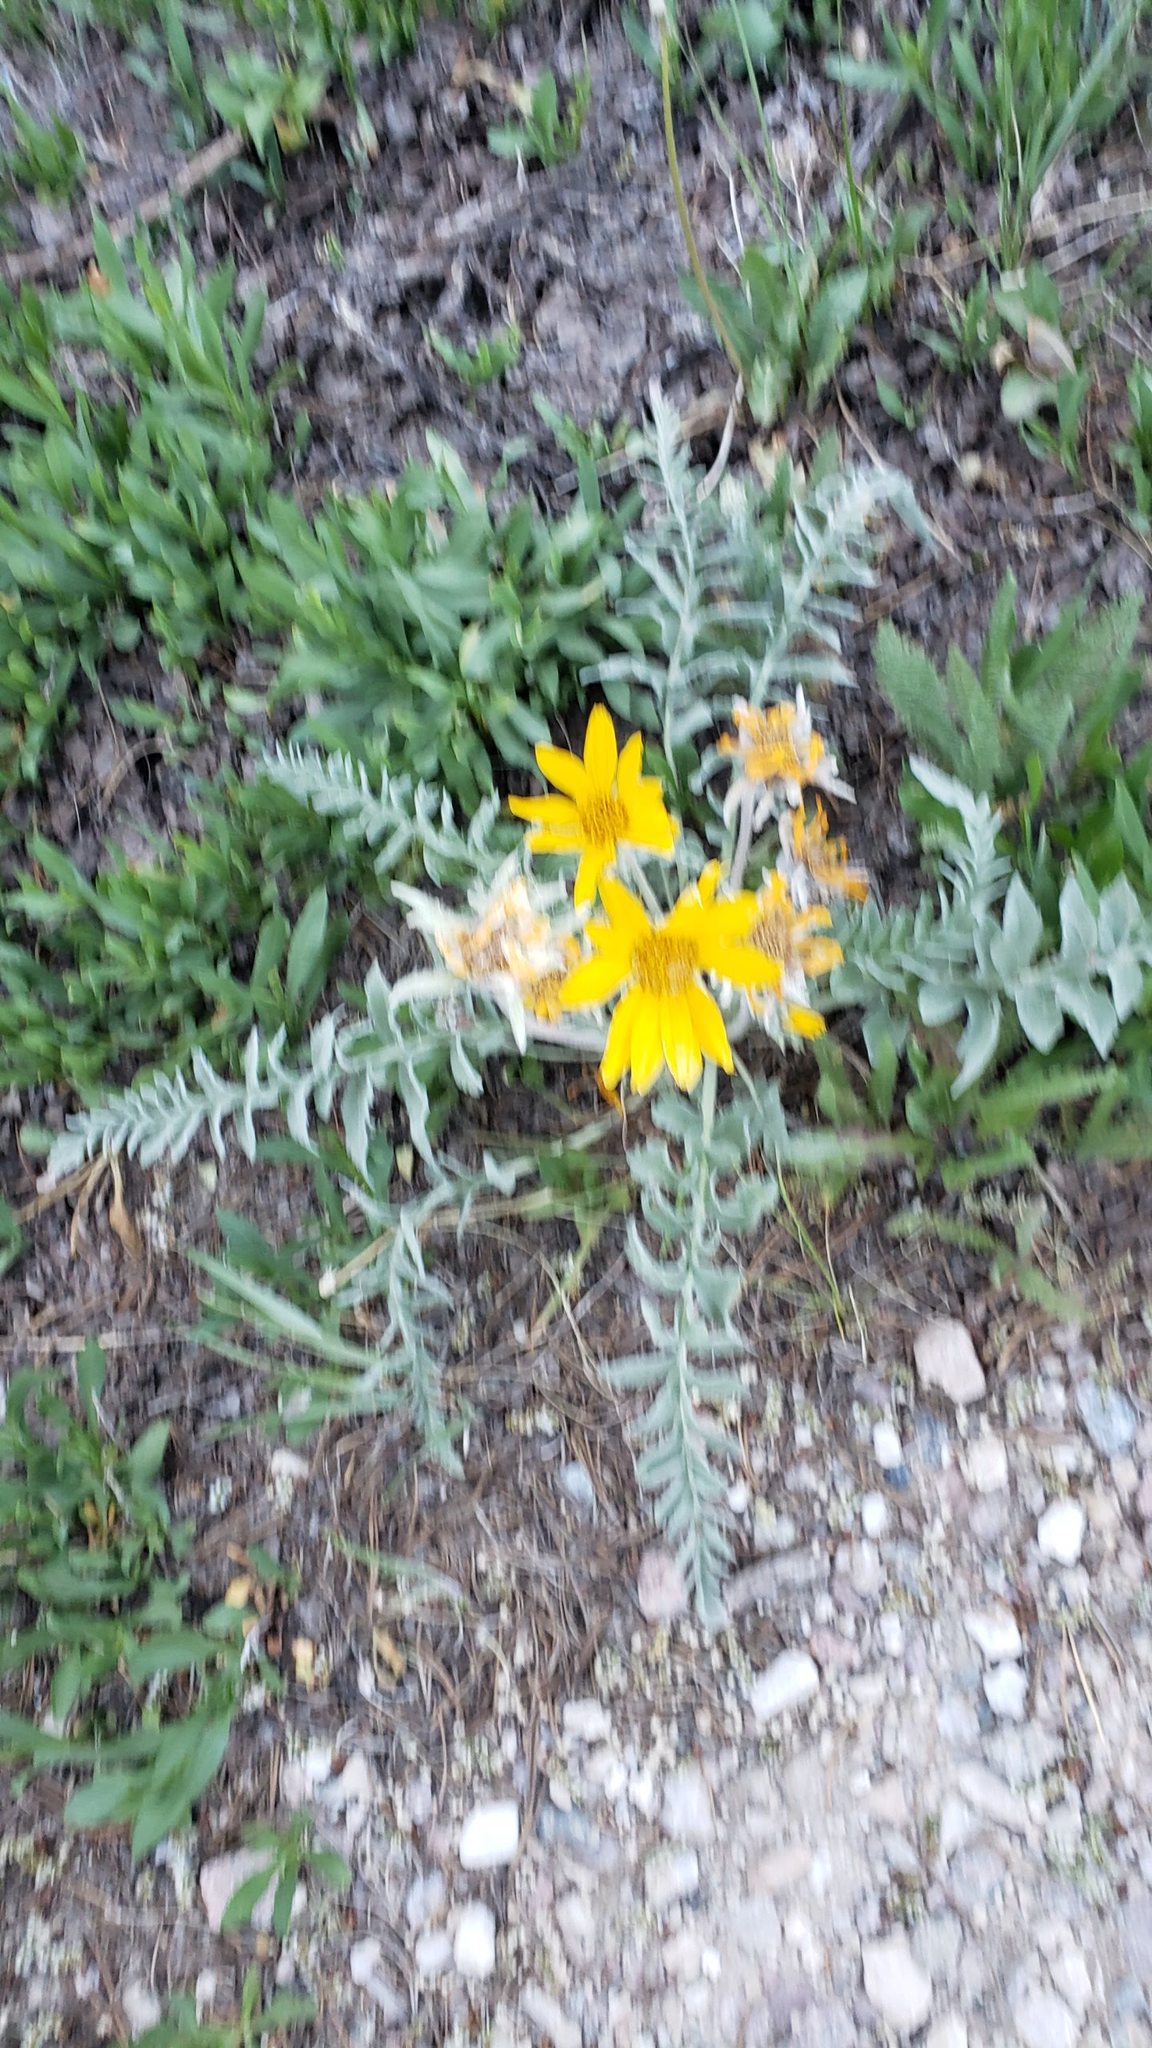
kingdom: Plantae
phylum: Tracheophyta
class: Magnoliopsida
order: Asterales
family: Asteraceae
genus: Balsamorhiza
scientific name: Balsamorhiza incana
